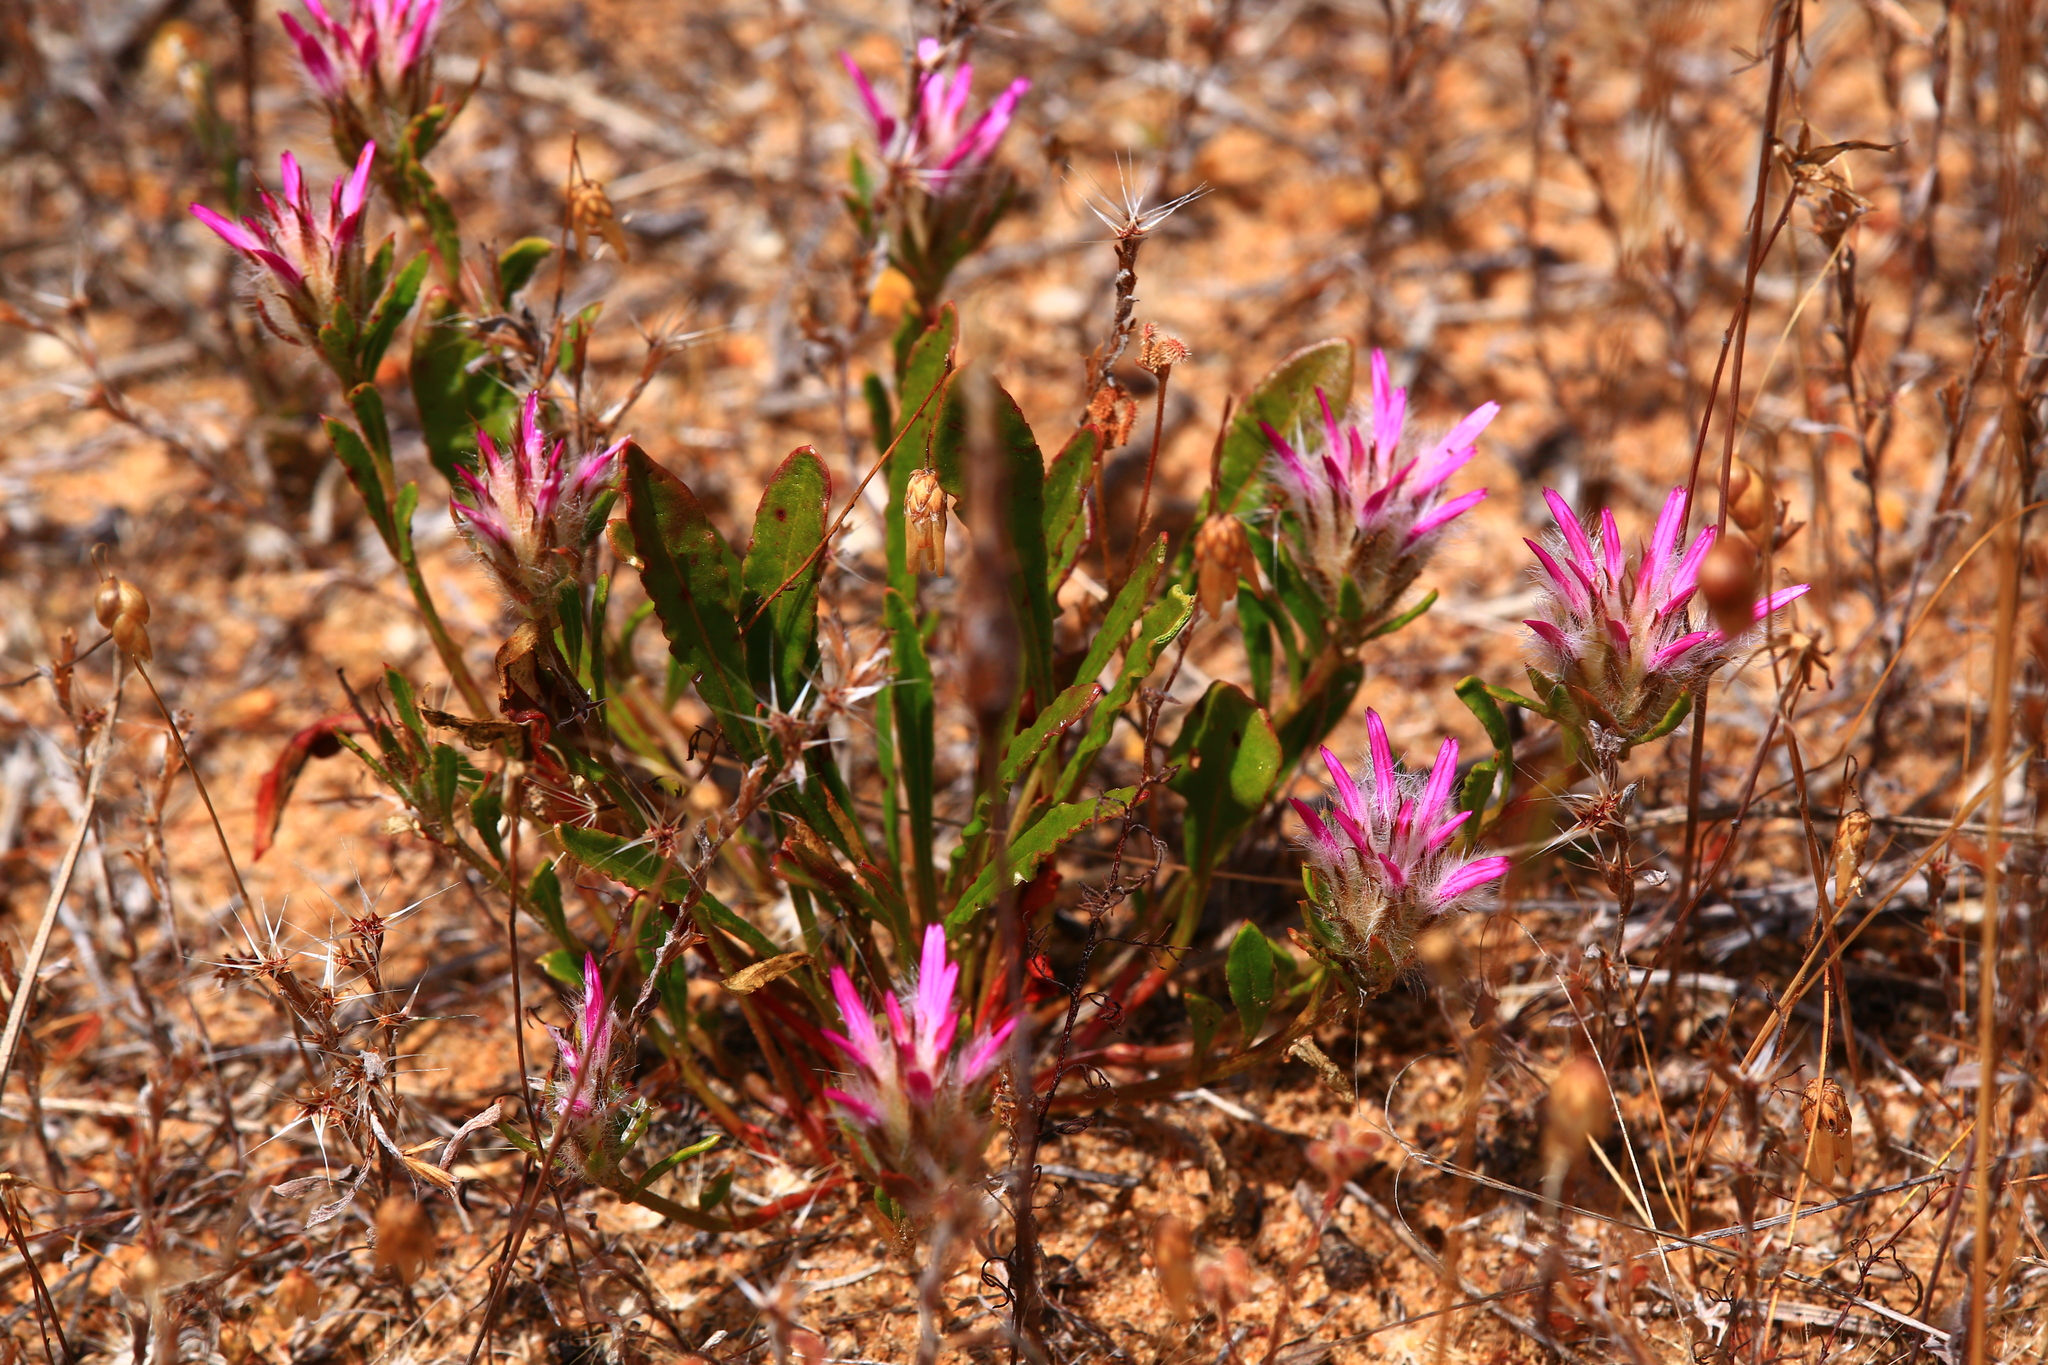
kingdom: Plantae
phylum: Tracheophyta
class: Magnoliopsida
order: Caryophyllales
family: Amaranthaceae
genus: Ptilotus
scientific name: Ptilotus manglesii
